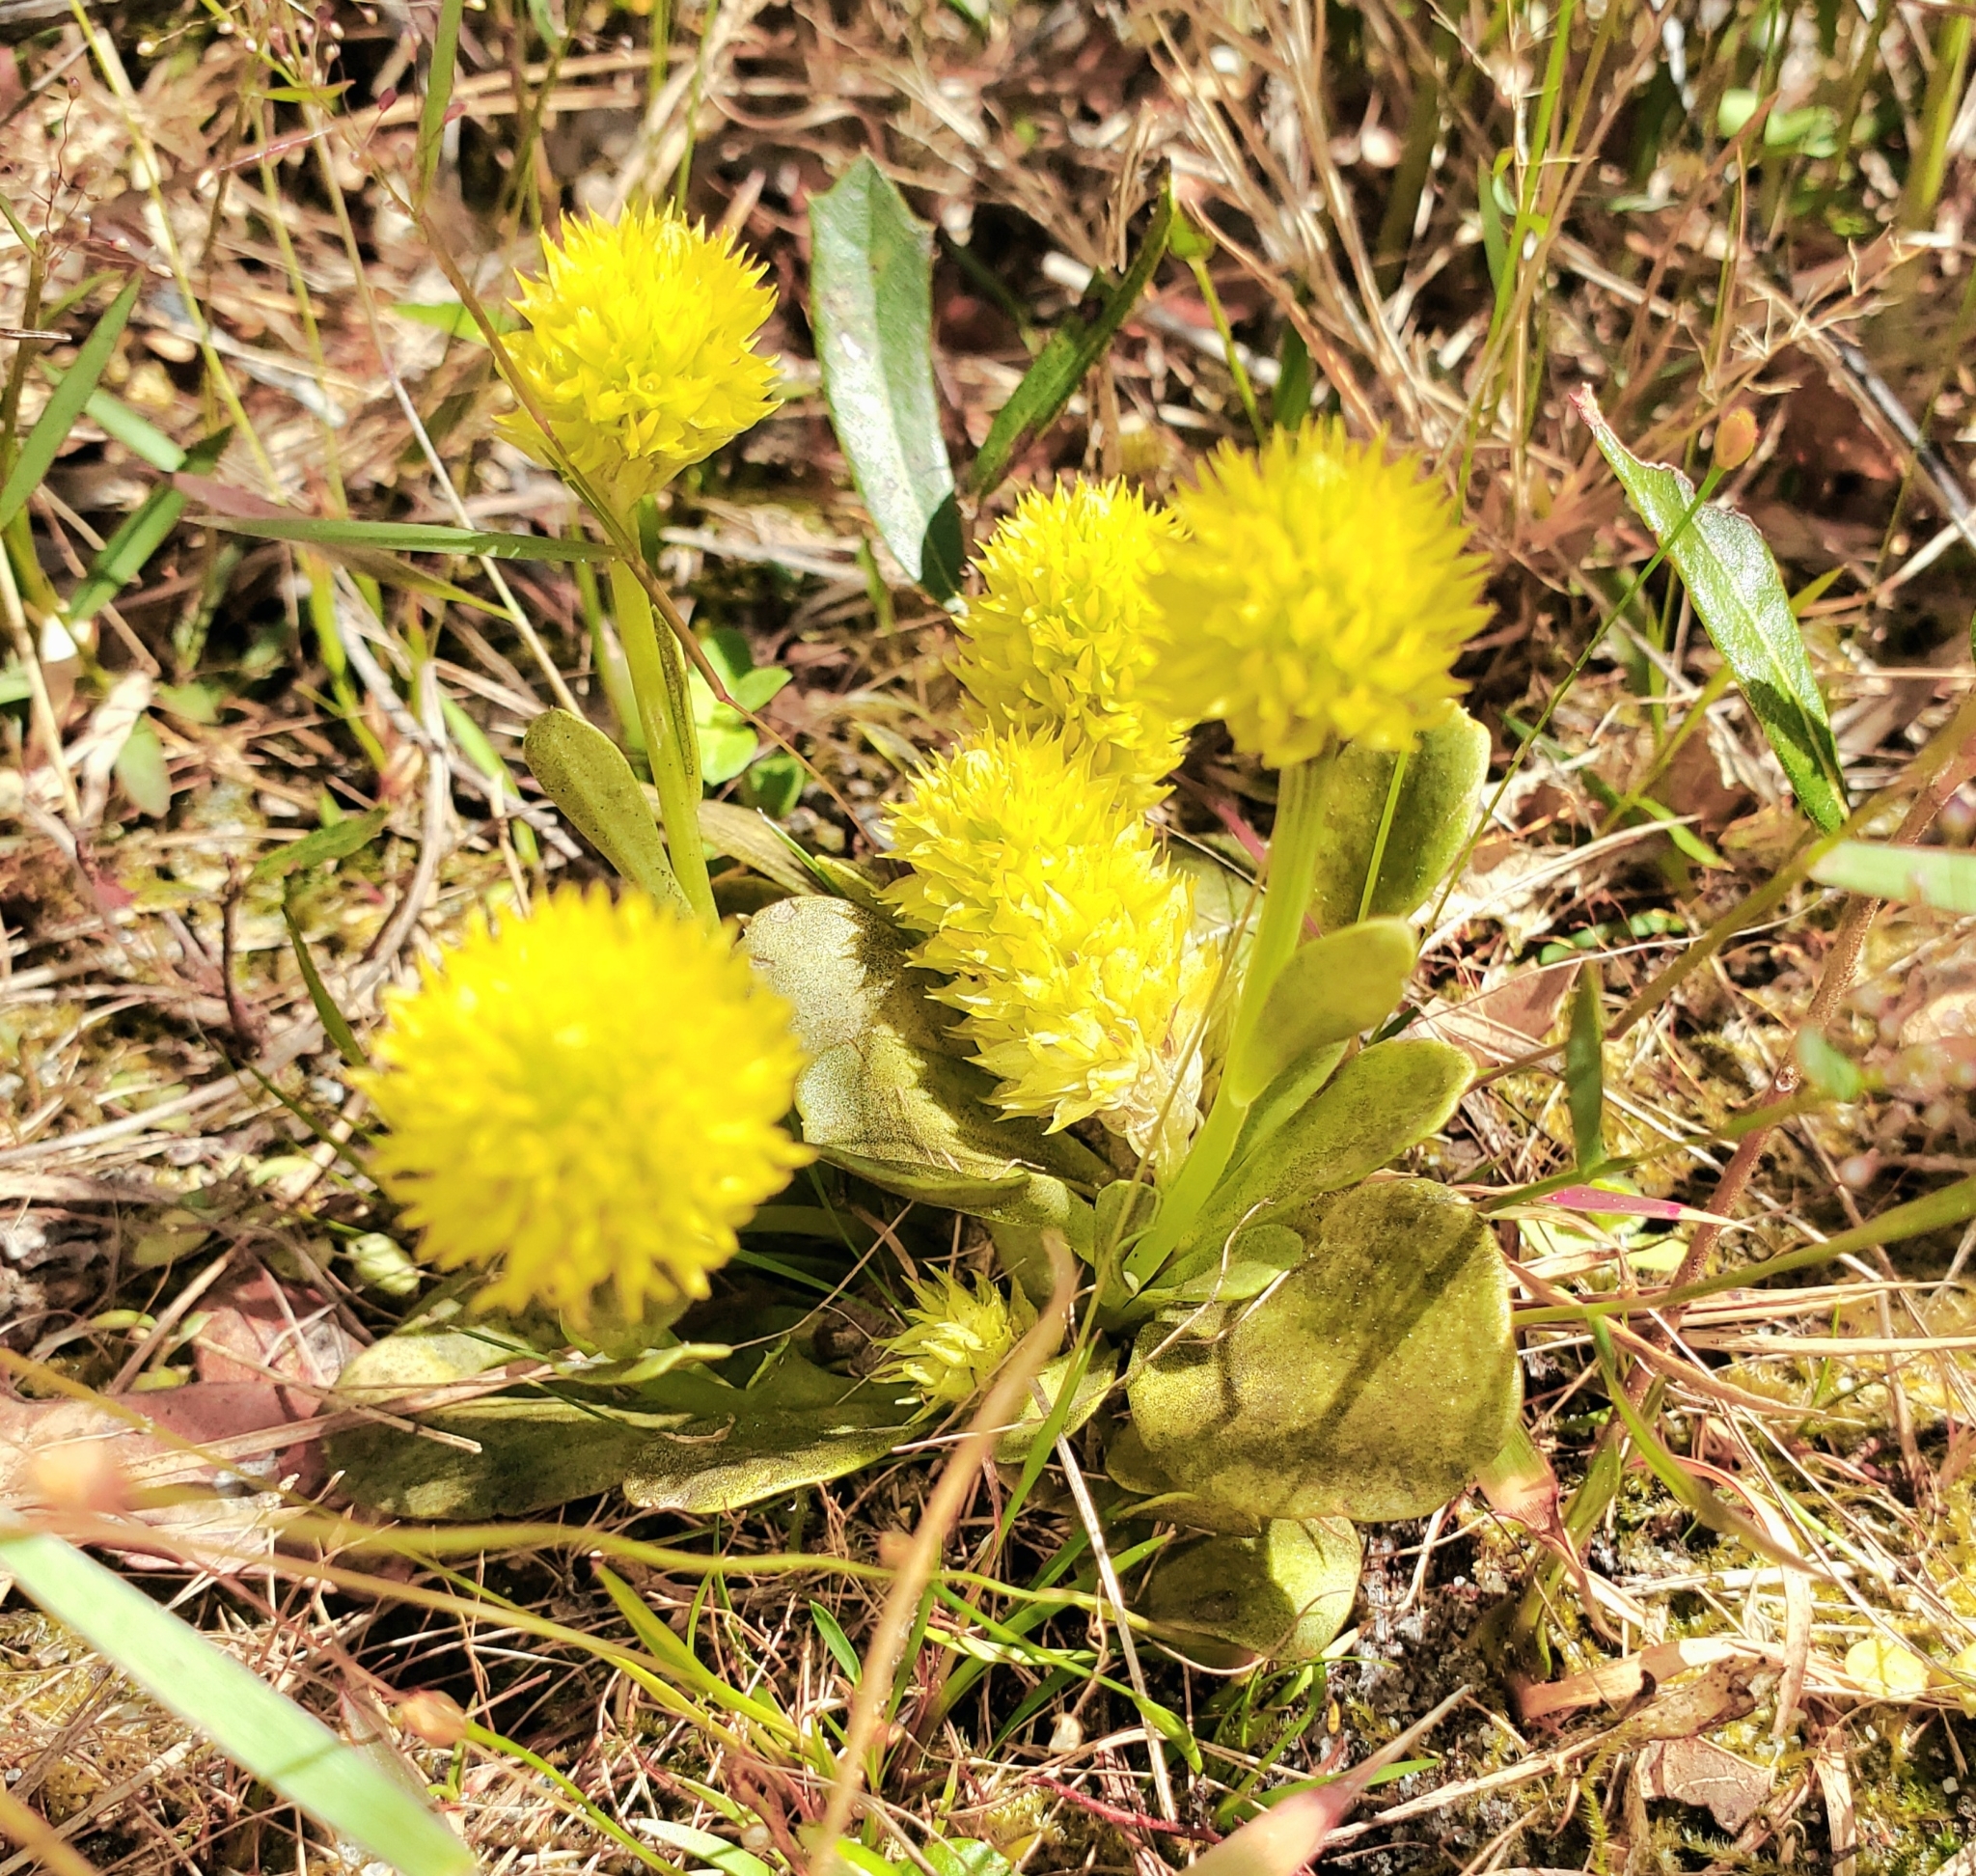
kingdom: Plantae
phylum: Tracheophyta
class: Magnoliopsida
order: Fabales
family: Polygalaceae
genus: Polygala
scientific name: Polygala nana
